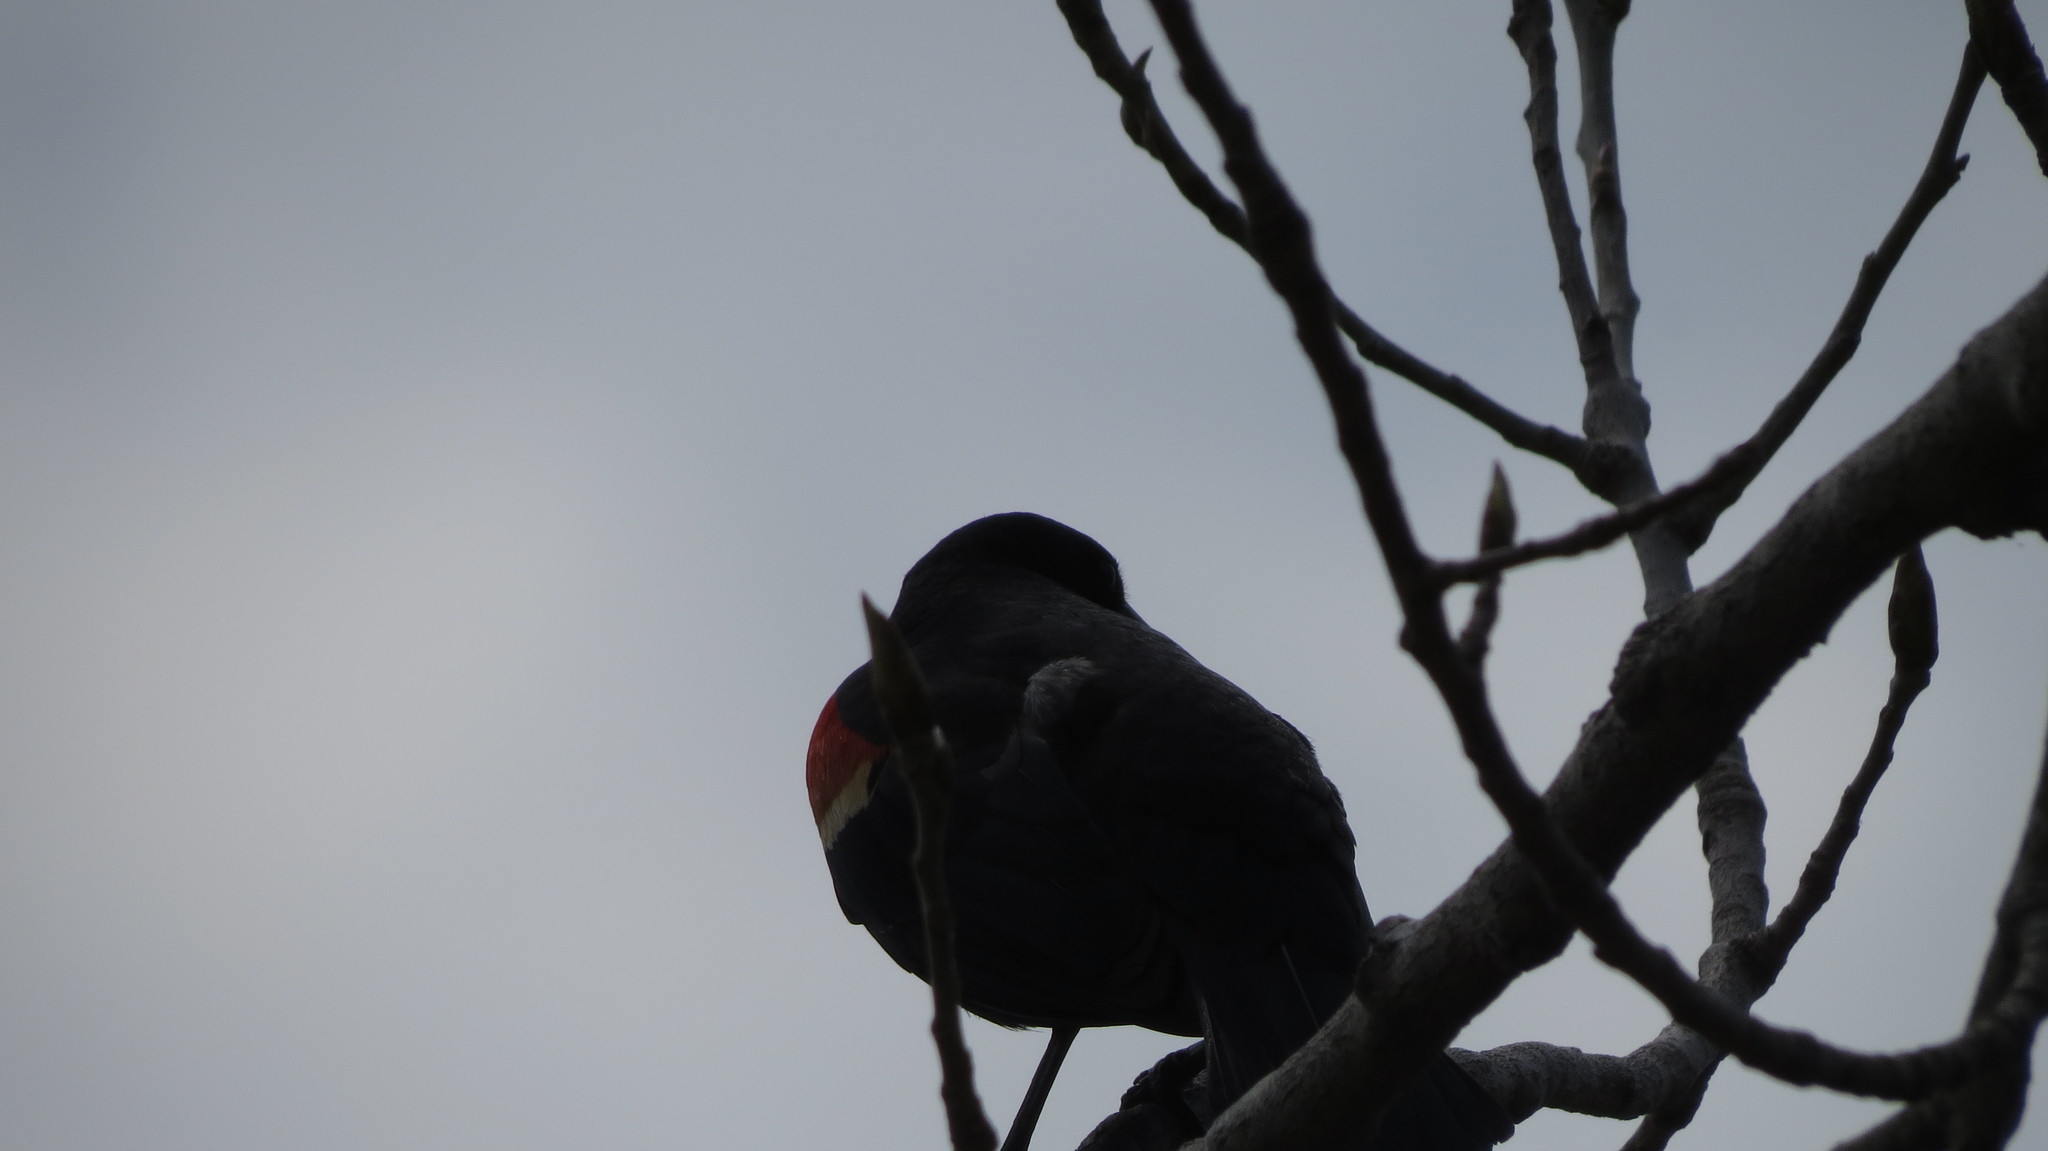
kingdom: Animalia
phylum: Chordata
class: Aves
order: Passeriformes
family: Icteridae
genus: Agelaius
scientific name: Agelaius phoeniceus
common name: Red-winged blackbird
